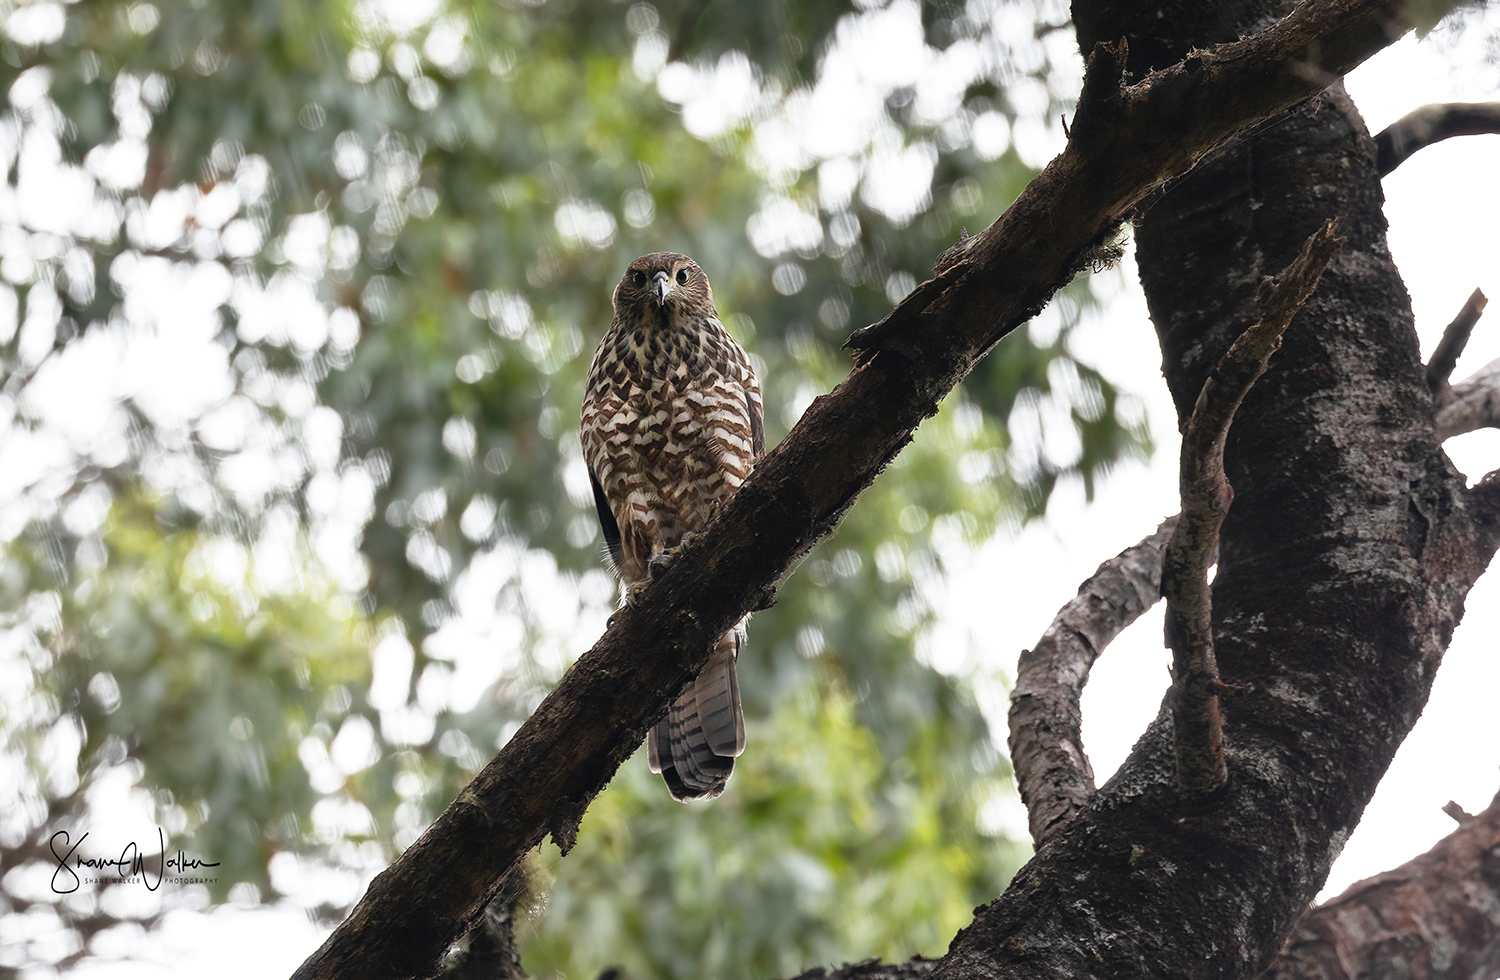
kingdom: Animalia
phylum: Chordata
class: Aves
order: Accipitriformes
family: Accipitridae
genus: Accipiter
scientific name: Accipiter fasciatus
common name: Brown goshawk
